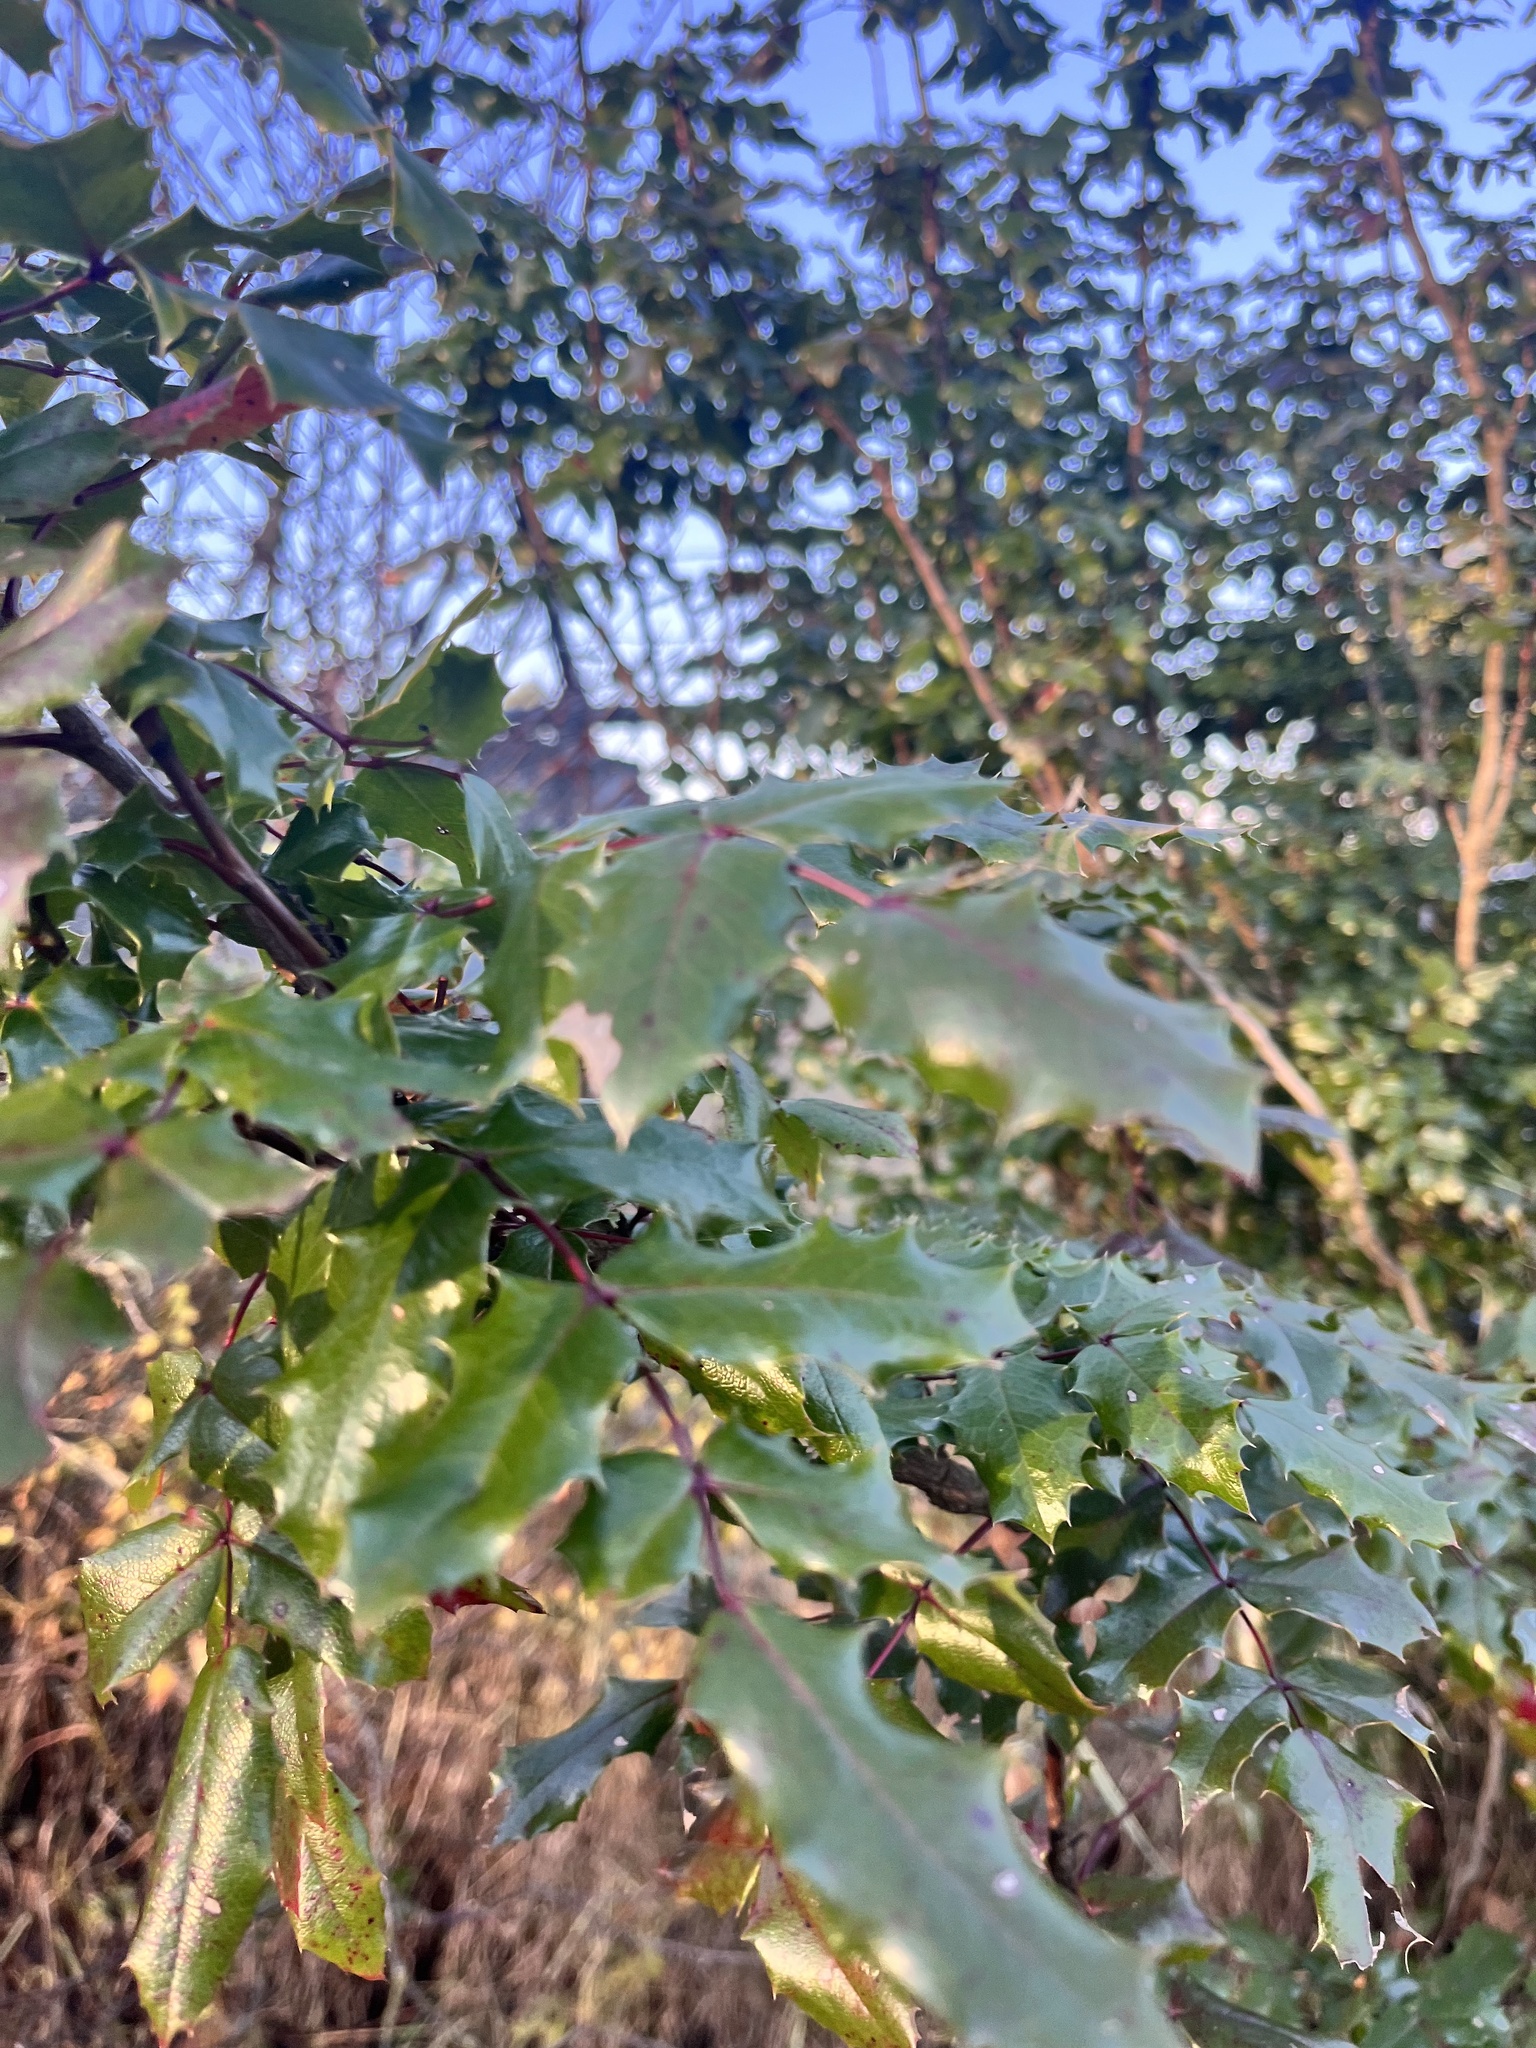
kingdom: Plantae
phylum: Tracheophyta
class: Magnoliopsida
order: Ranunculales
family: Berberidaceae
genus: Mahonia
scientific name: Mahonia aquifolium
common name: Oregon-grape
